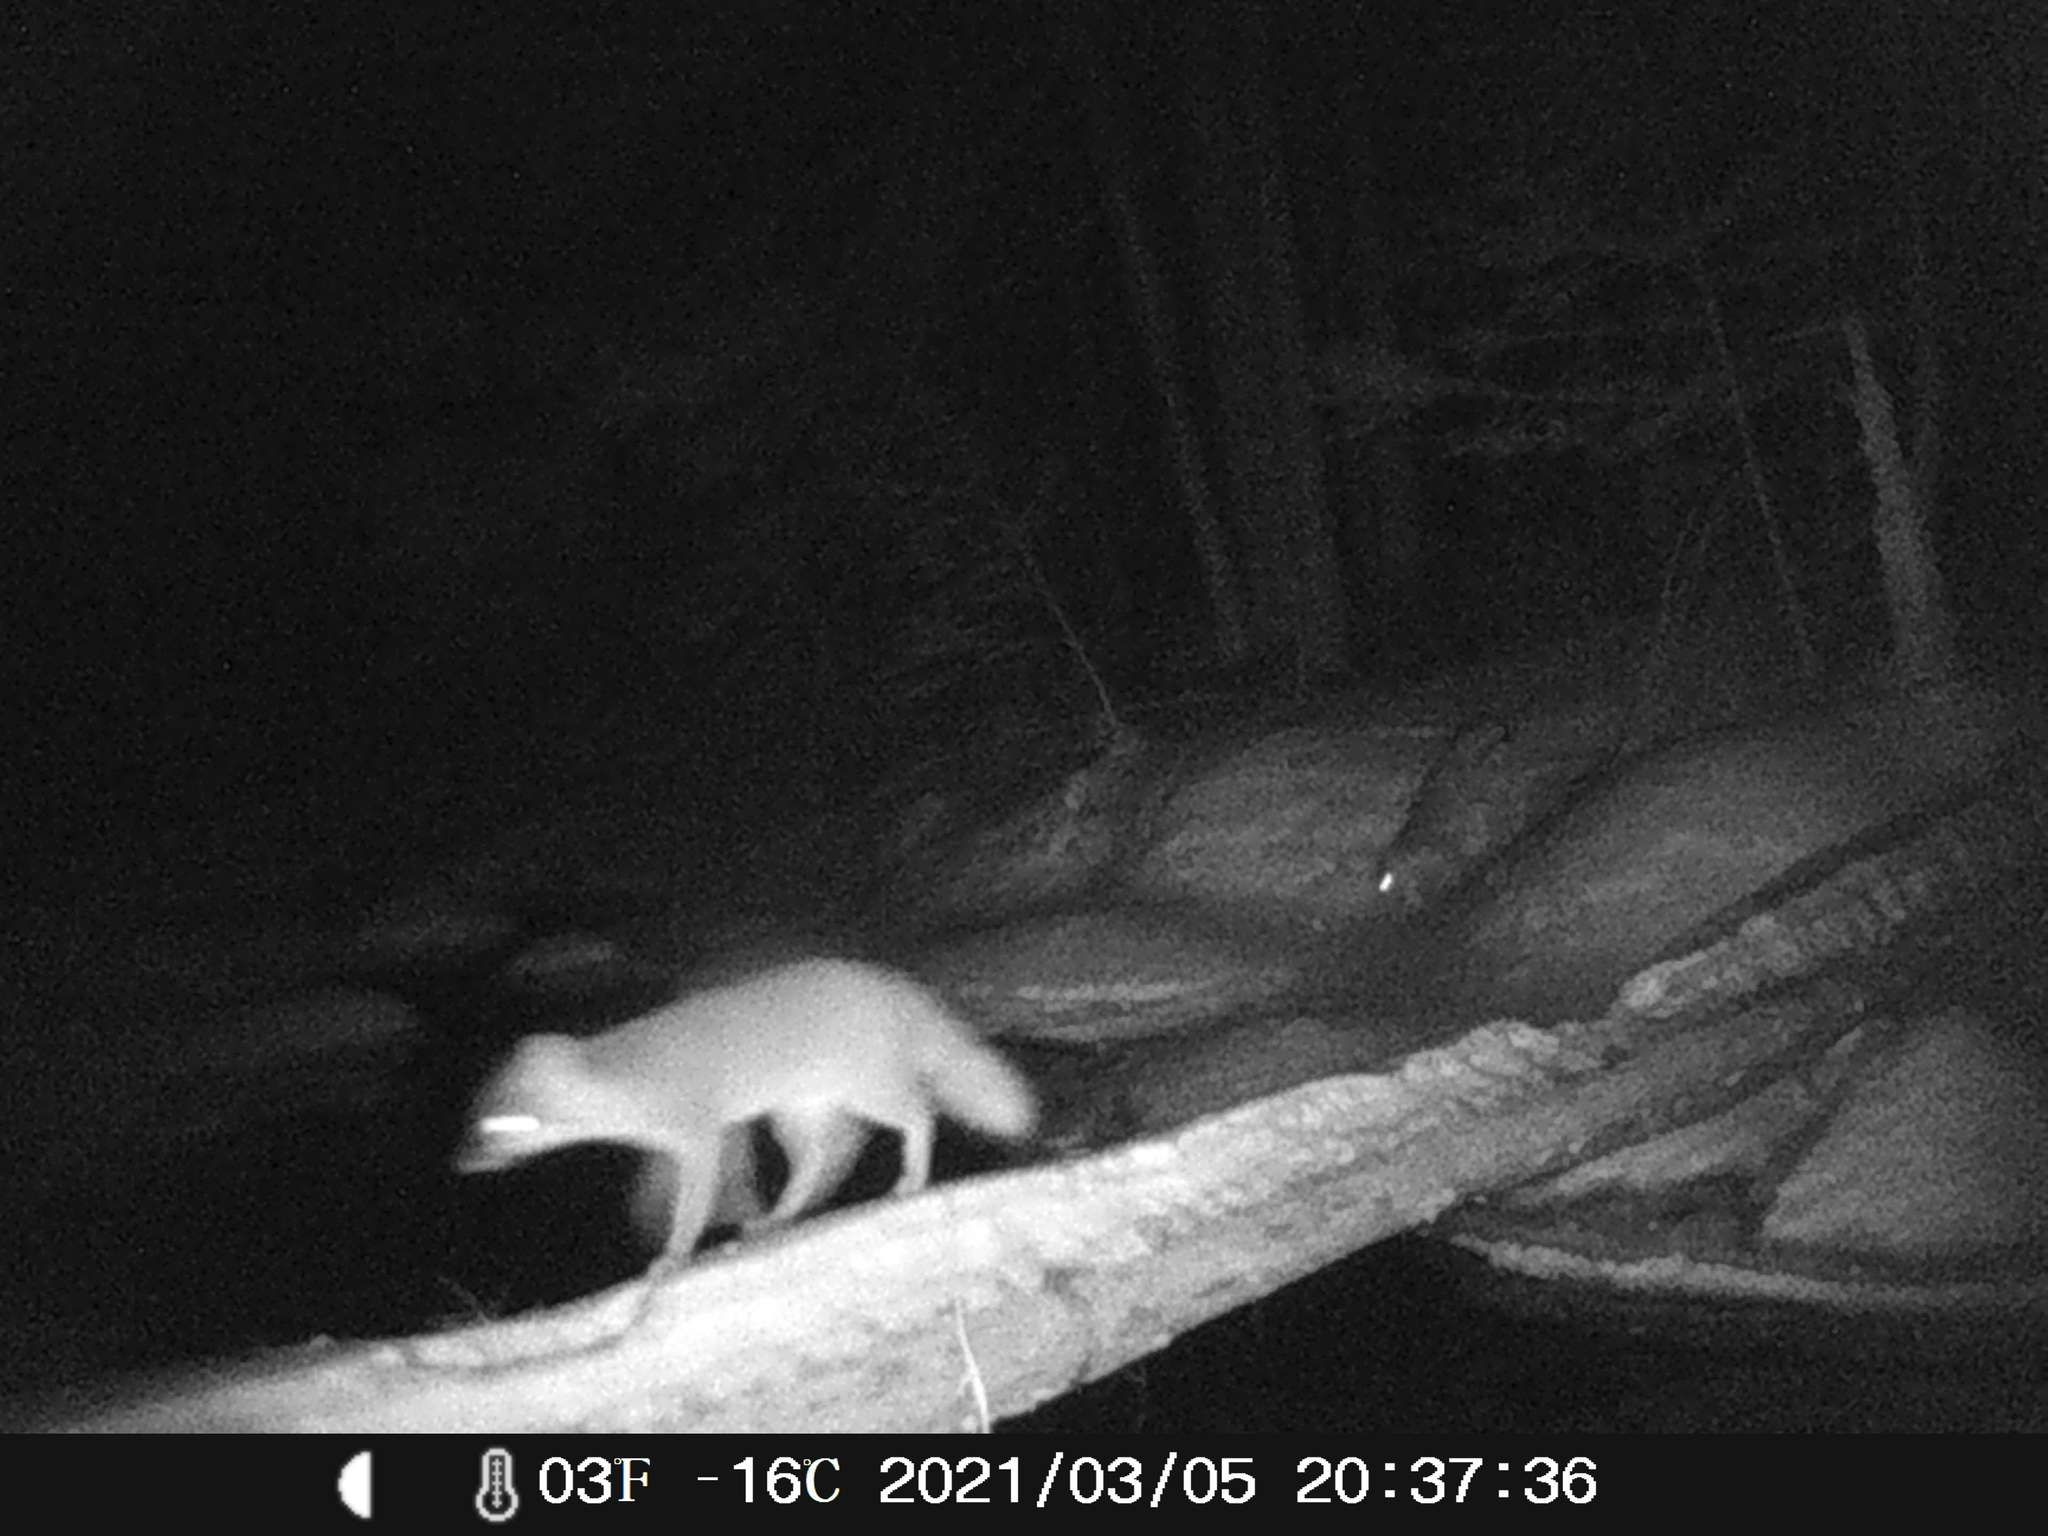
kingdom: Animalia
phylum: Chordata
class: Mammalia
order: Carnivora
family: Canidae
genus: Urocyon
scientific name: Urocyon cinereoargenteus
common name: Gray fox
